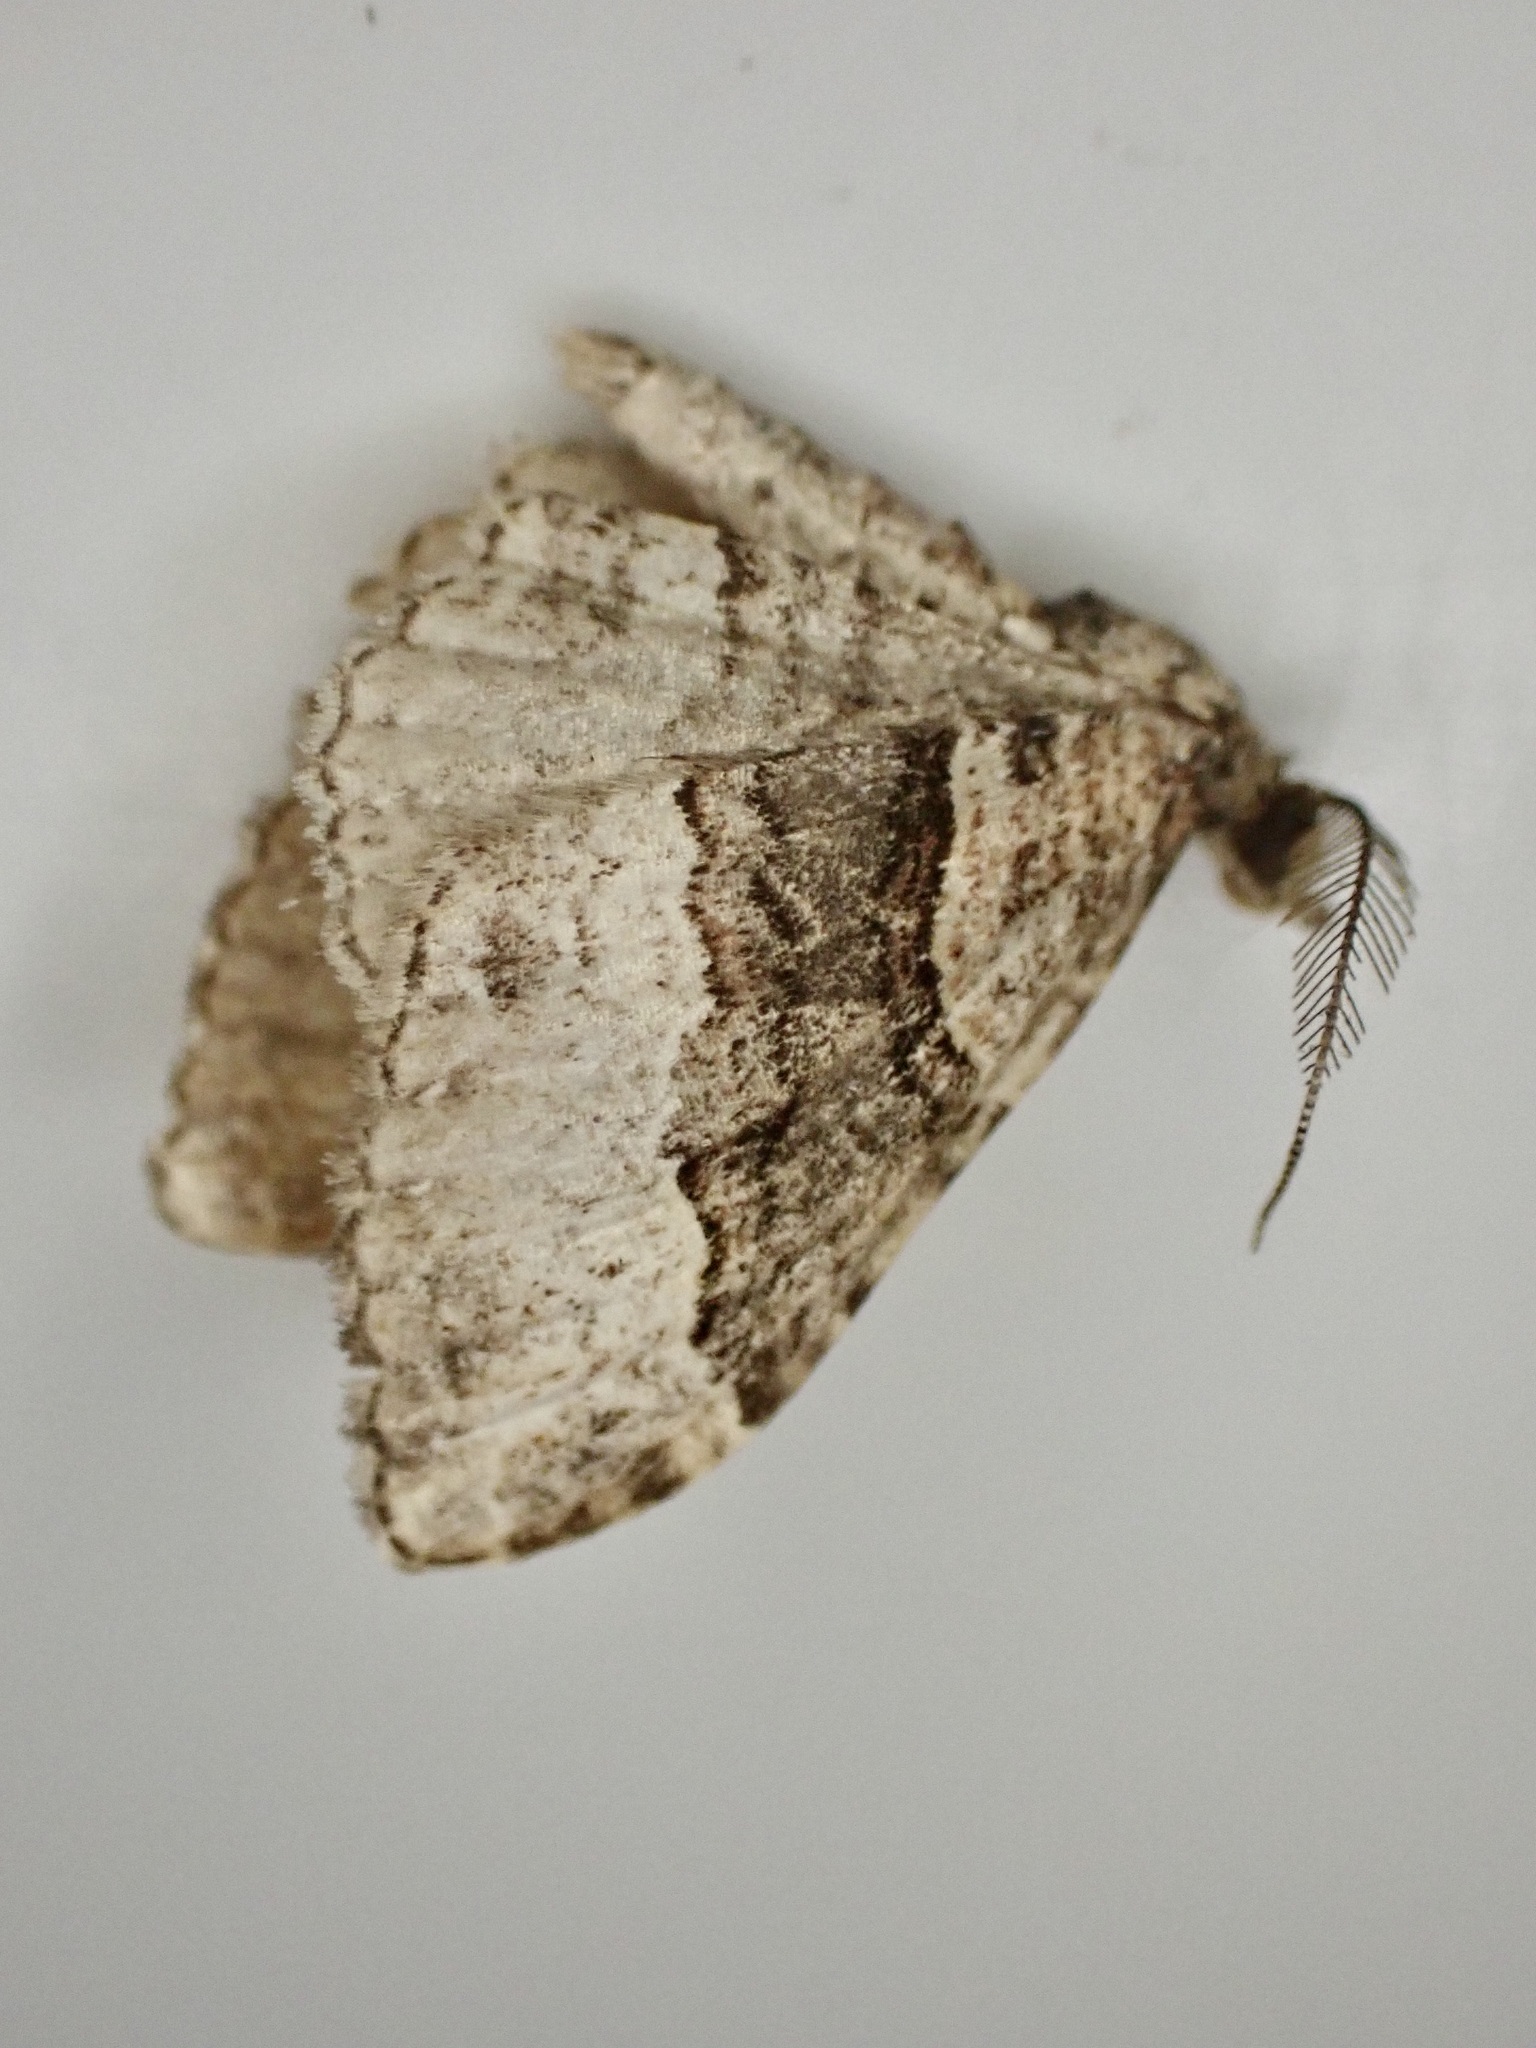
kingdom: Animalia
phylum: Arthropoda
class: Insecta
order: Lepidoptera
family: Geometridae
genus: Epyaxa
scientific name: Epyaxa lucidata
